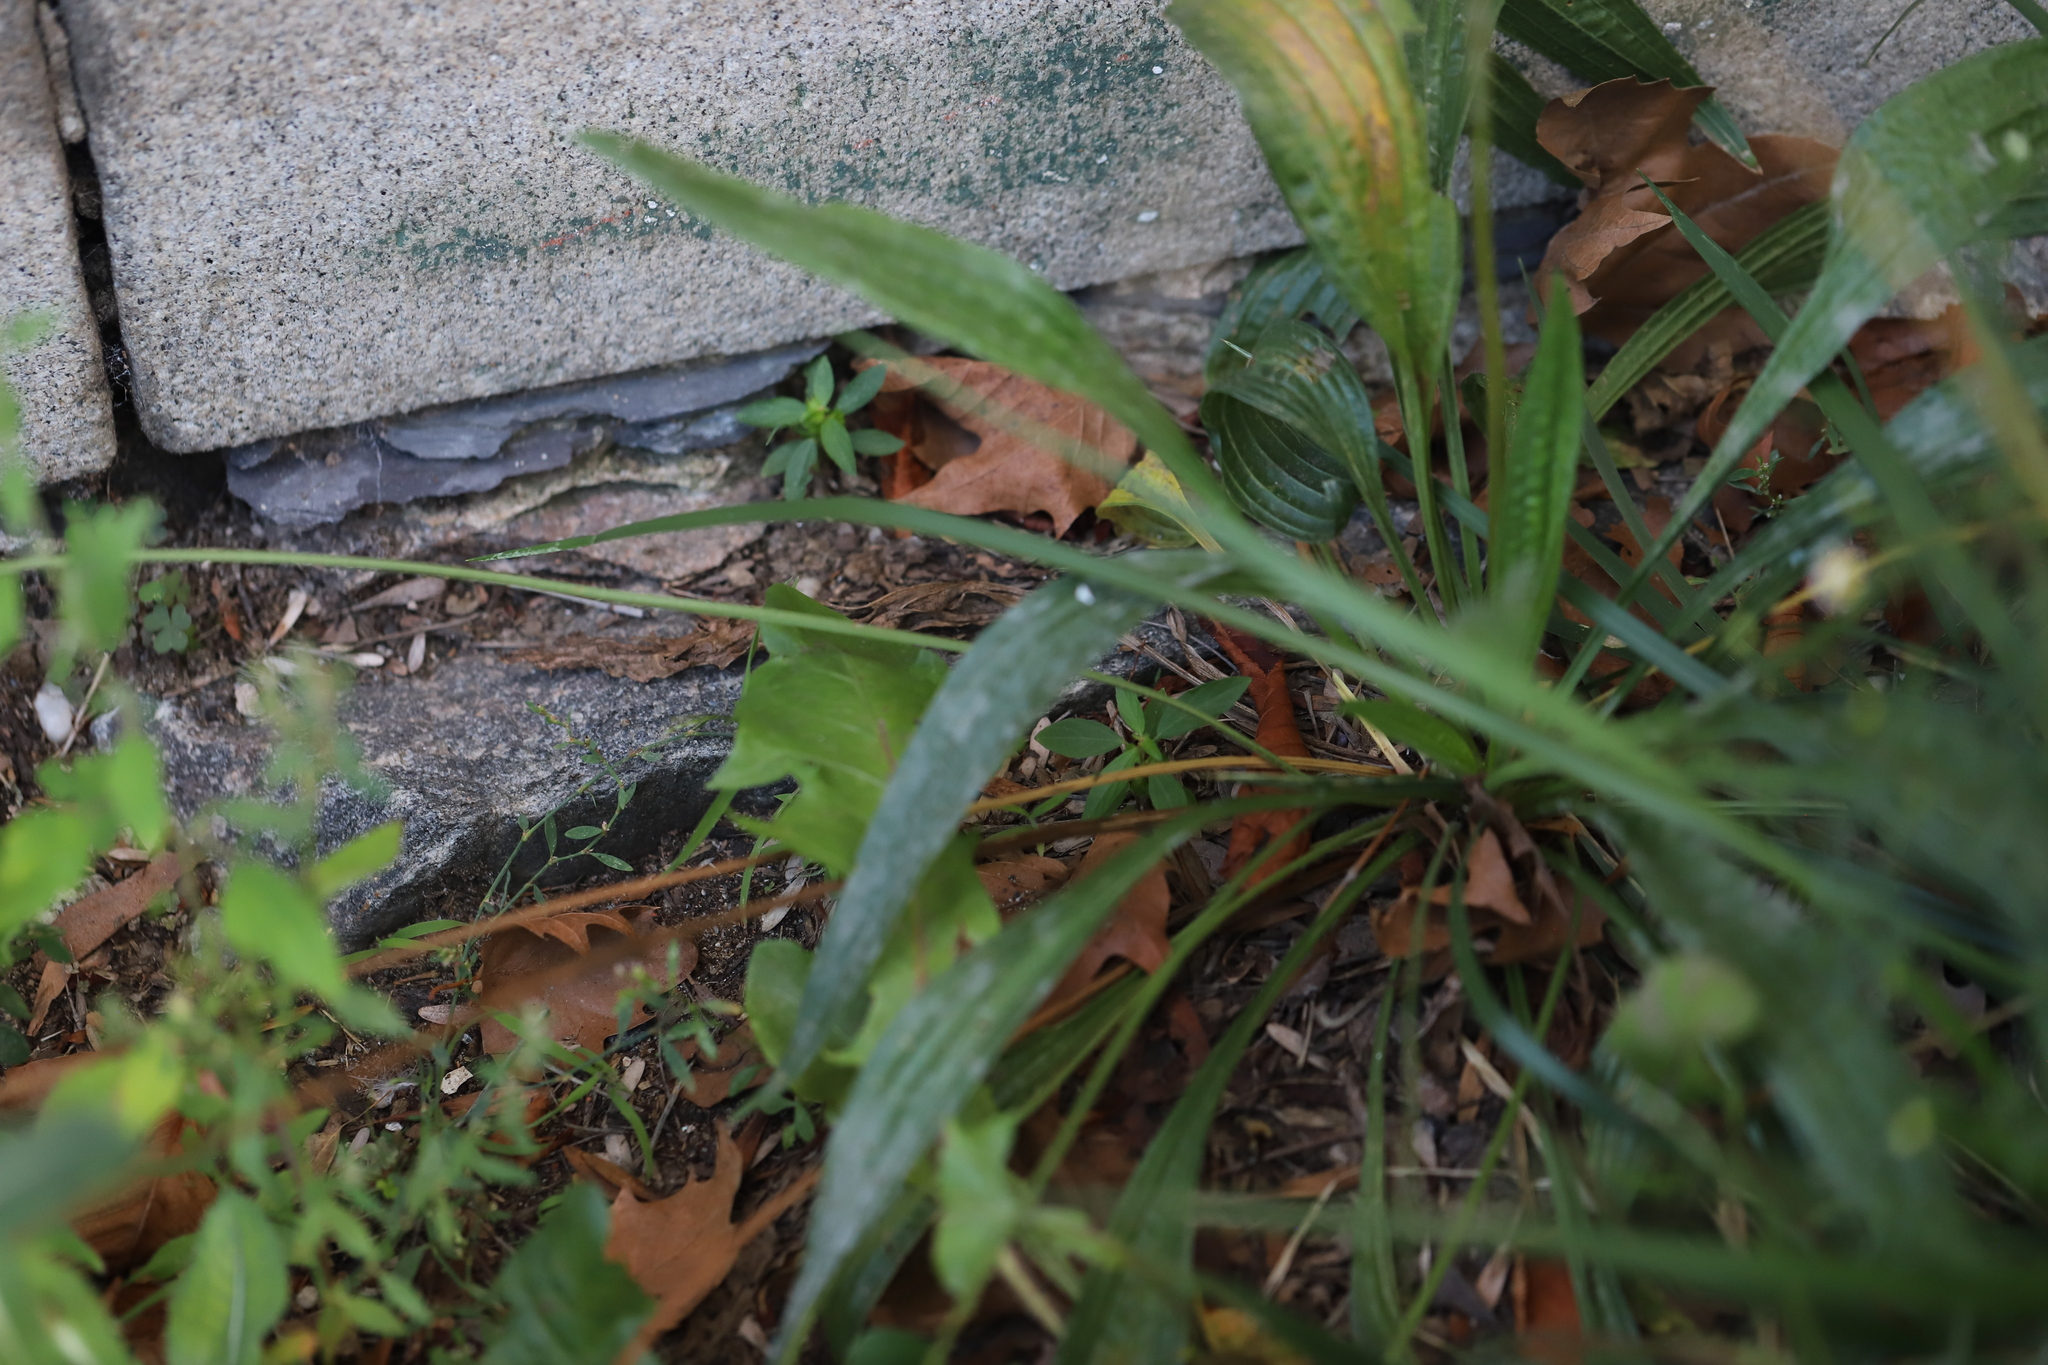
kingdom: Plantae
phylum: Tracheophyta
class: Magnoliopsida
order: Lamiales
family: Plantaginaceae
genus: Plantago
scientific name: Plantago lanceolata
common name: Ribwort plantain
